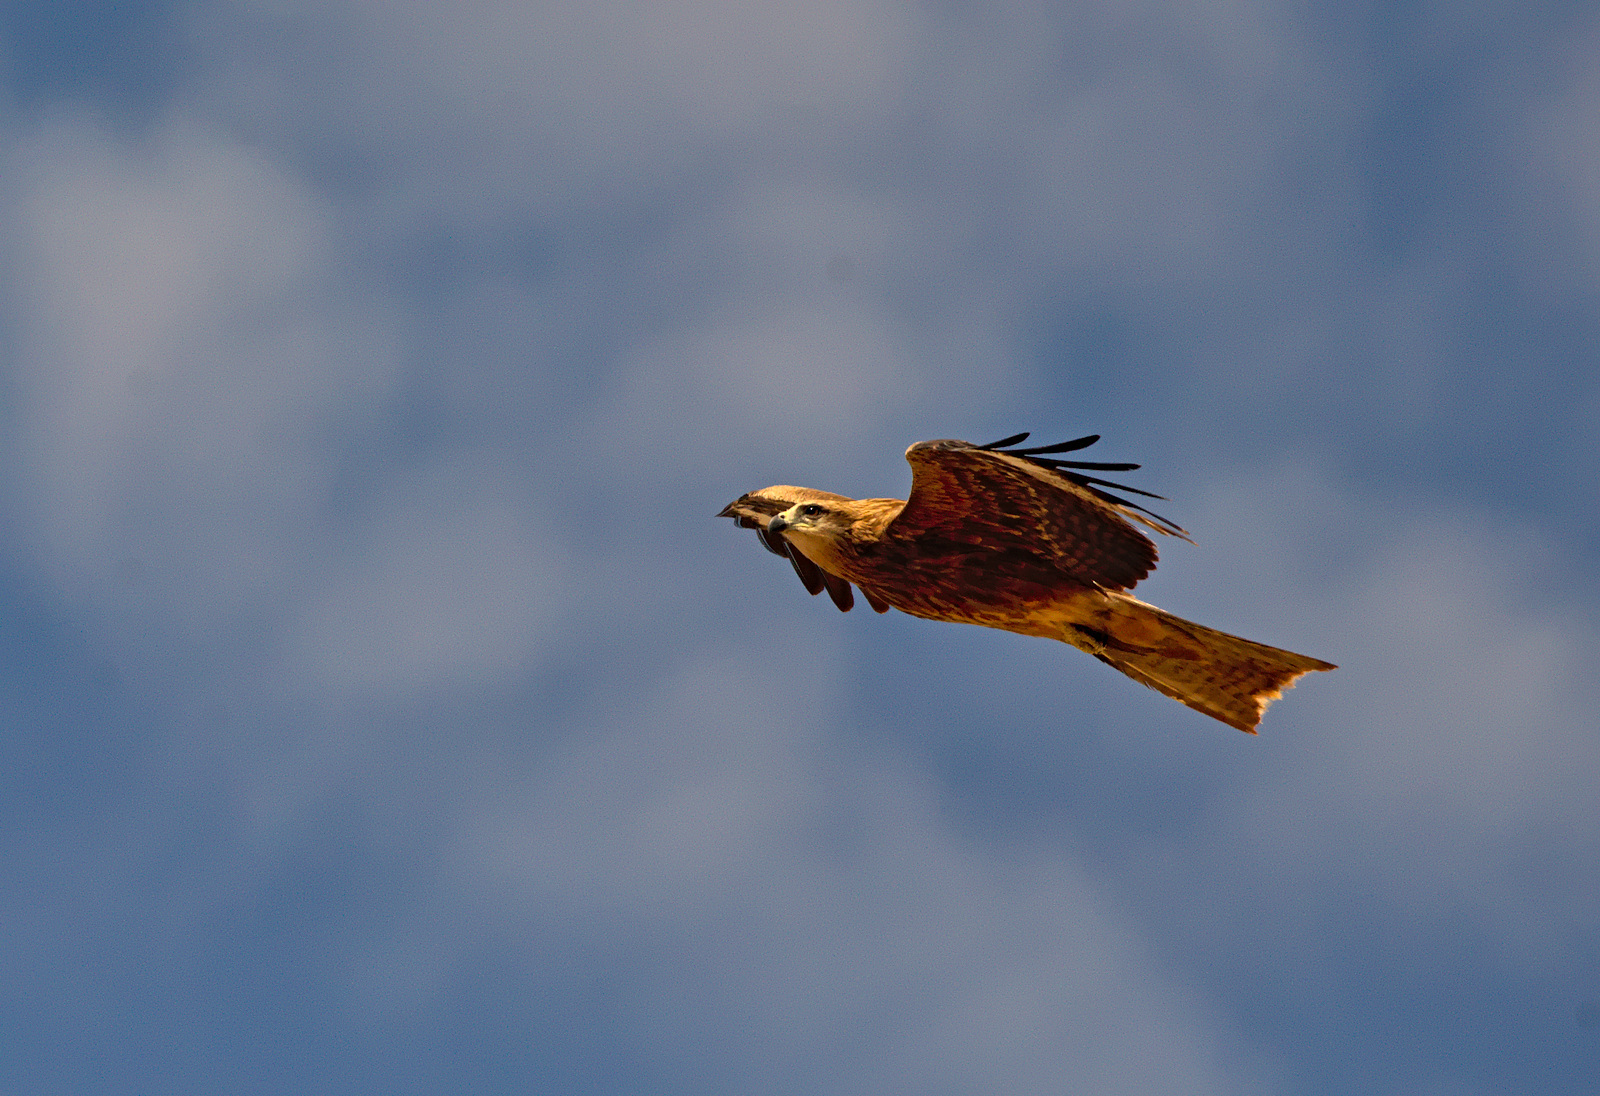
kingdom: Animalia
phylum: Chordata
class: Aves
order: Accipitriformes
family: Accipitridae
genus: Milvus
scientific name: Milvus migrans
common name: Black kite
